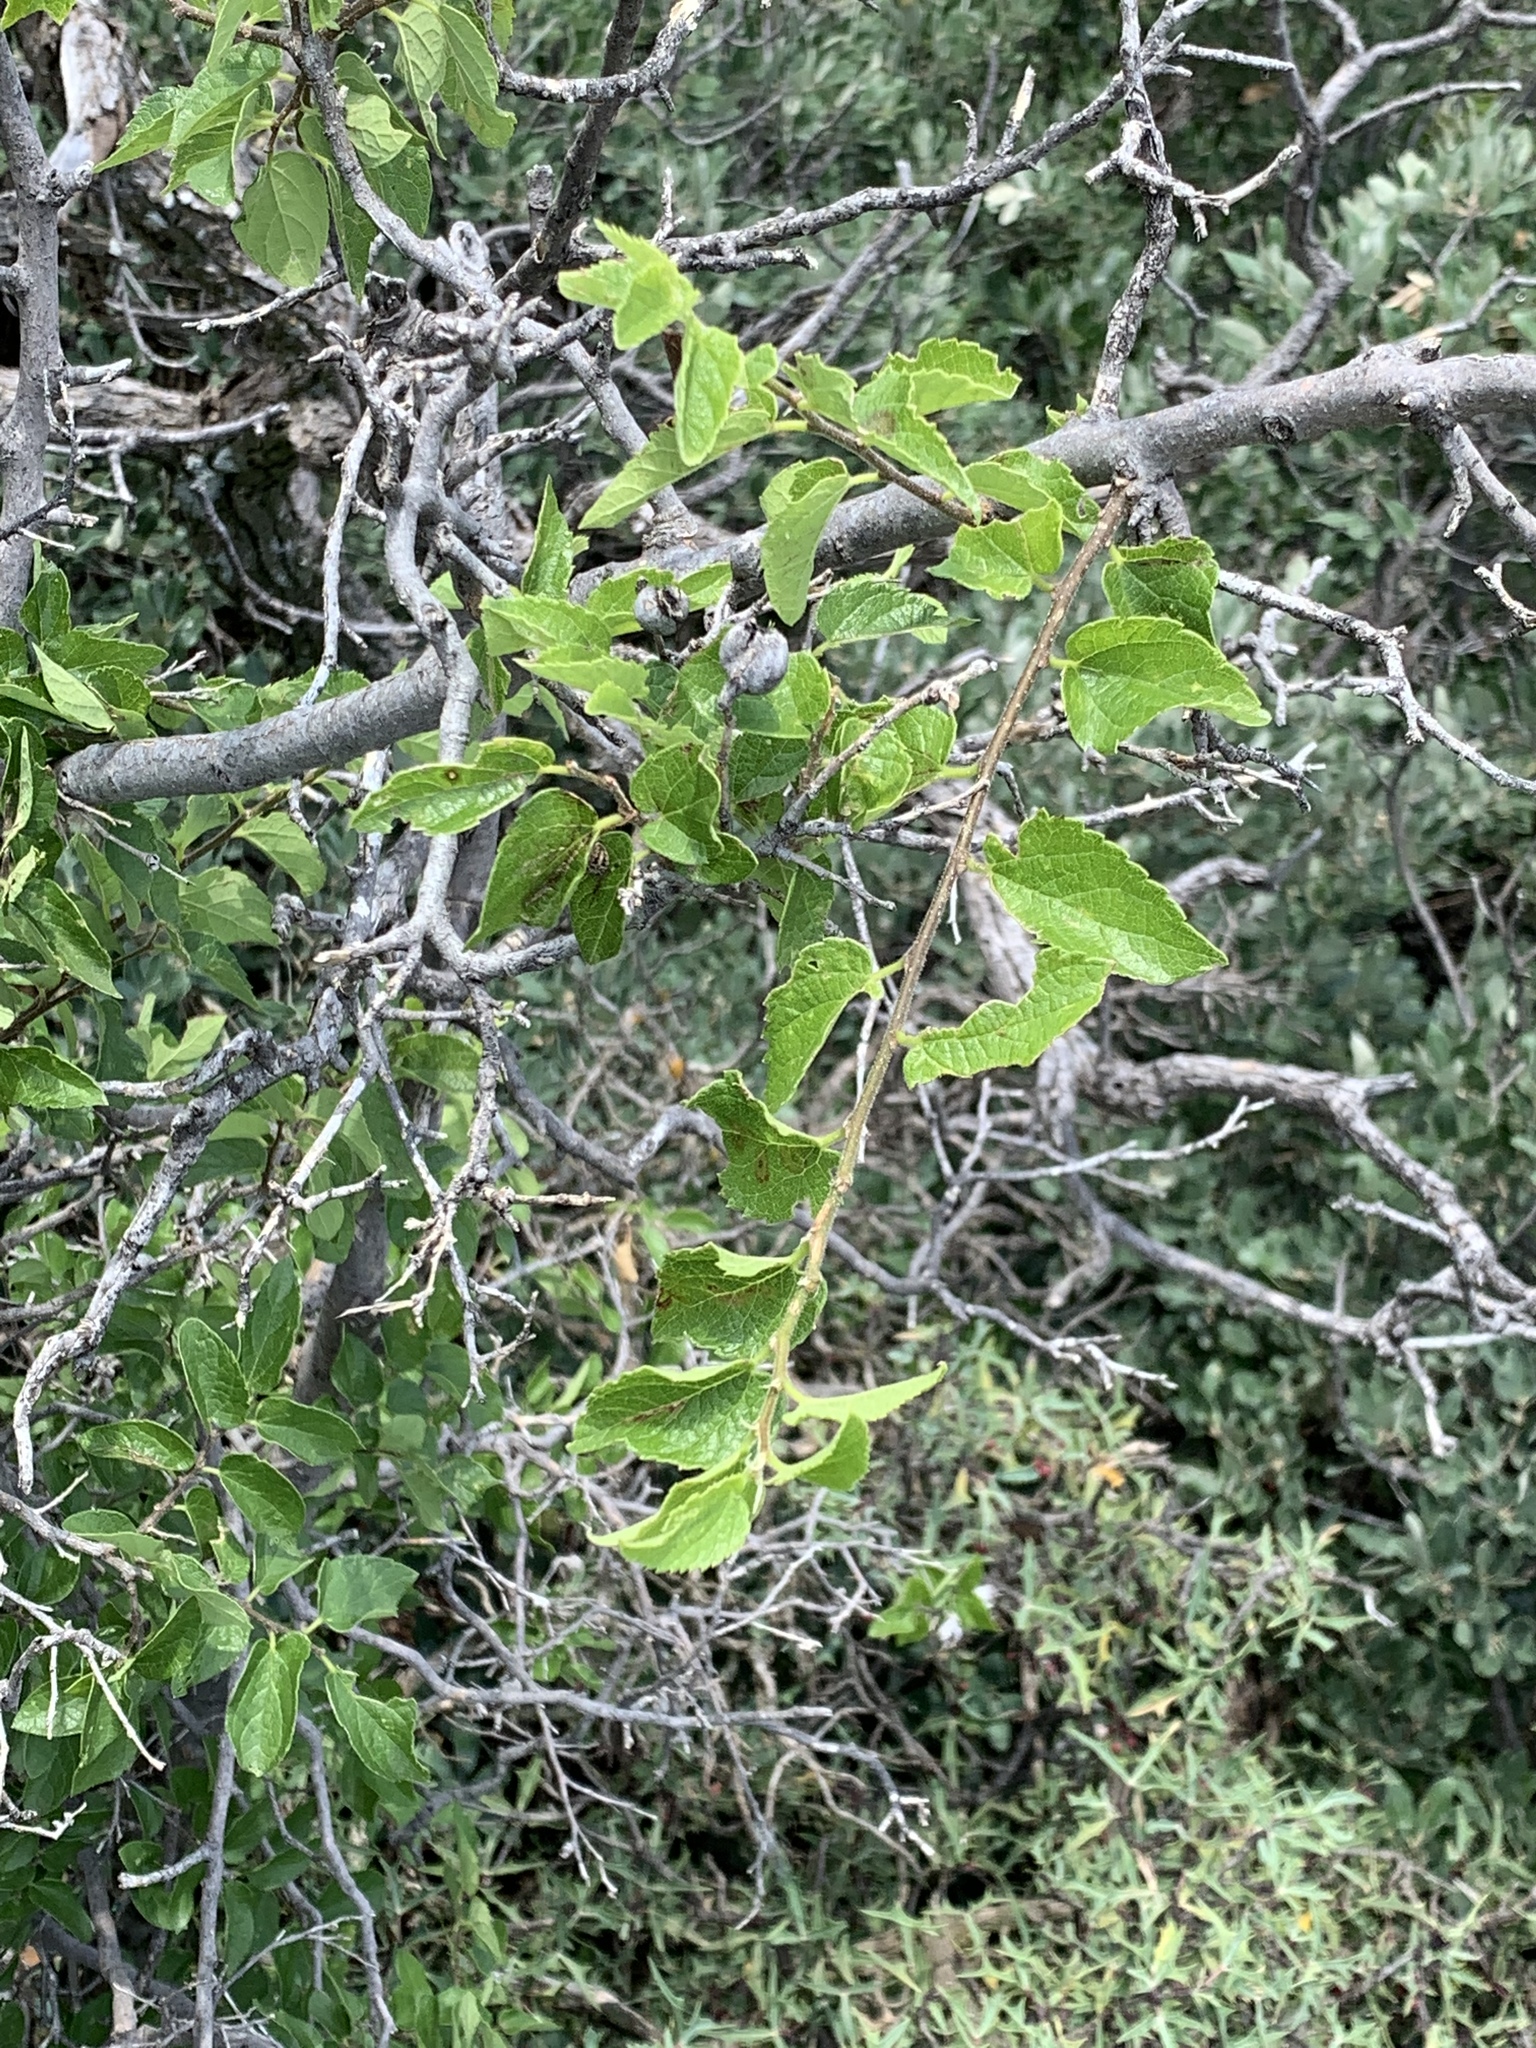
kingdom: Plantae
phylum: Tracheophyta
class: Magnoliopsida
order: Rosales
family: Cannabaceae
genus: Celtis
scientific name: Celtis reticulata
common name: Netleaf hackberry
